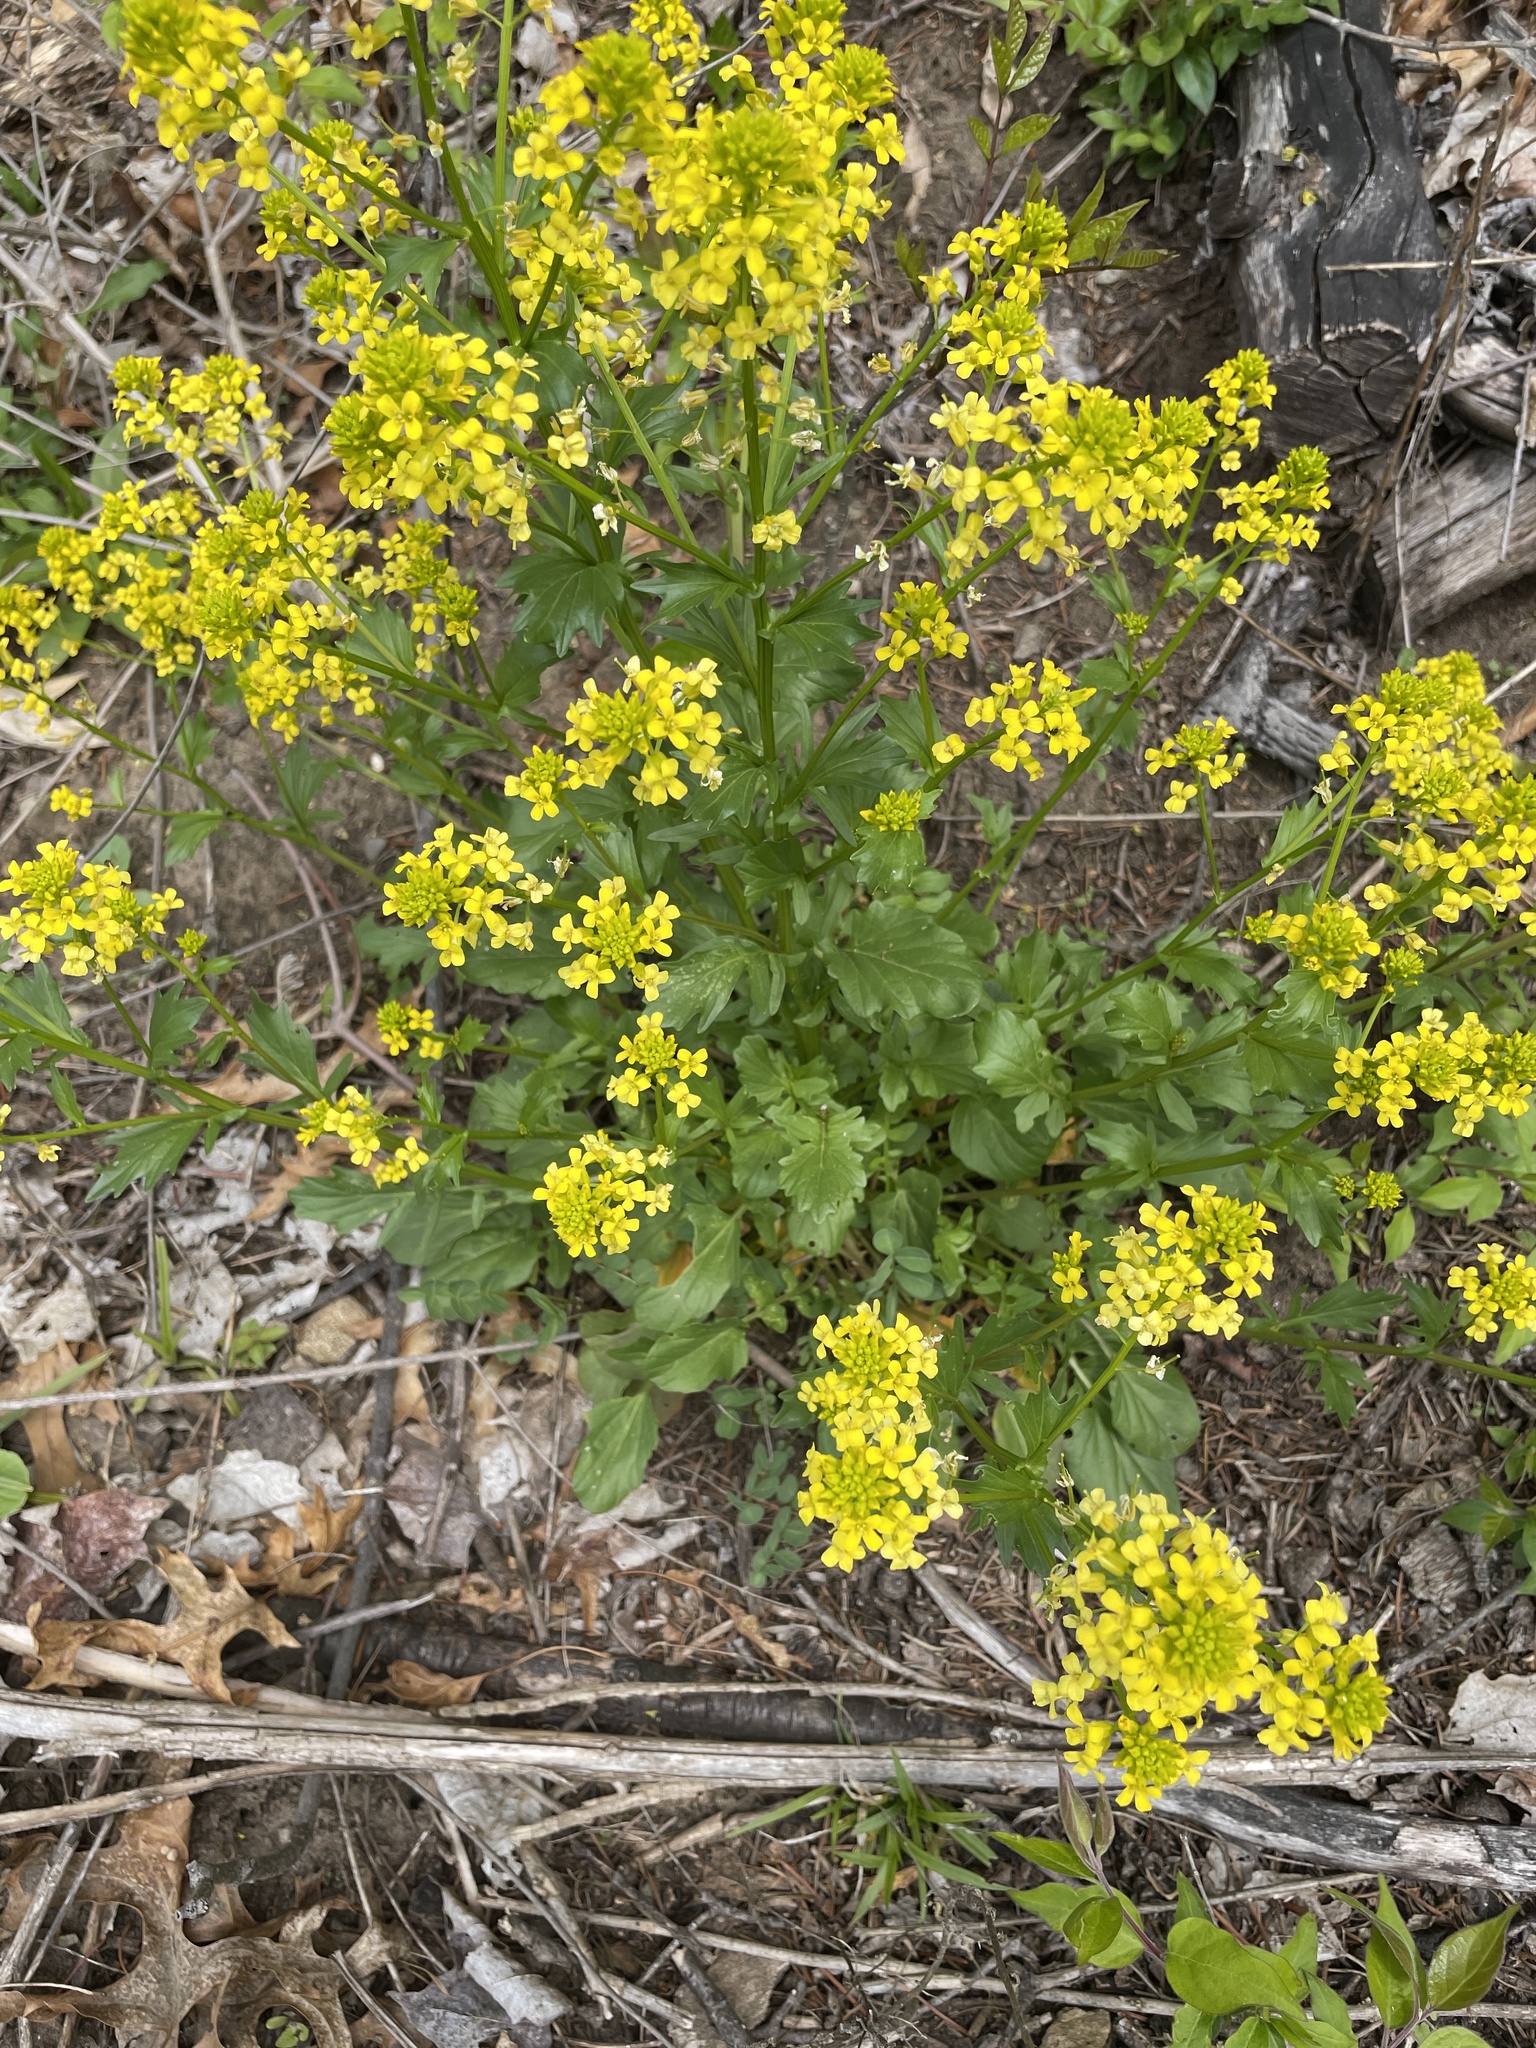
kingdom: Plantae
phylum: Tracheophyta
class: Magnoliopsida
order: Brassicales
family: Brassicaceae
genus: Barbarea
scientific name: Barbarea vulgaris
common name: Cressy-greens
